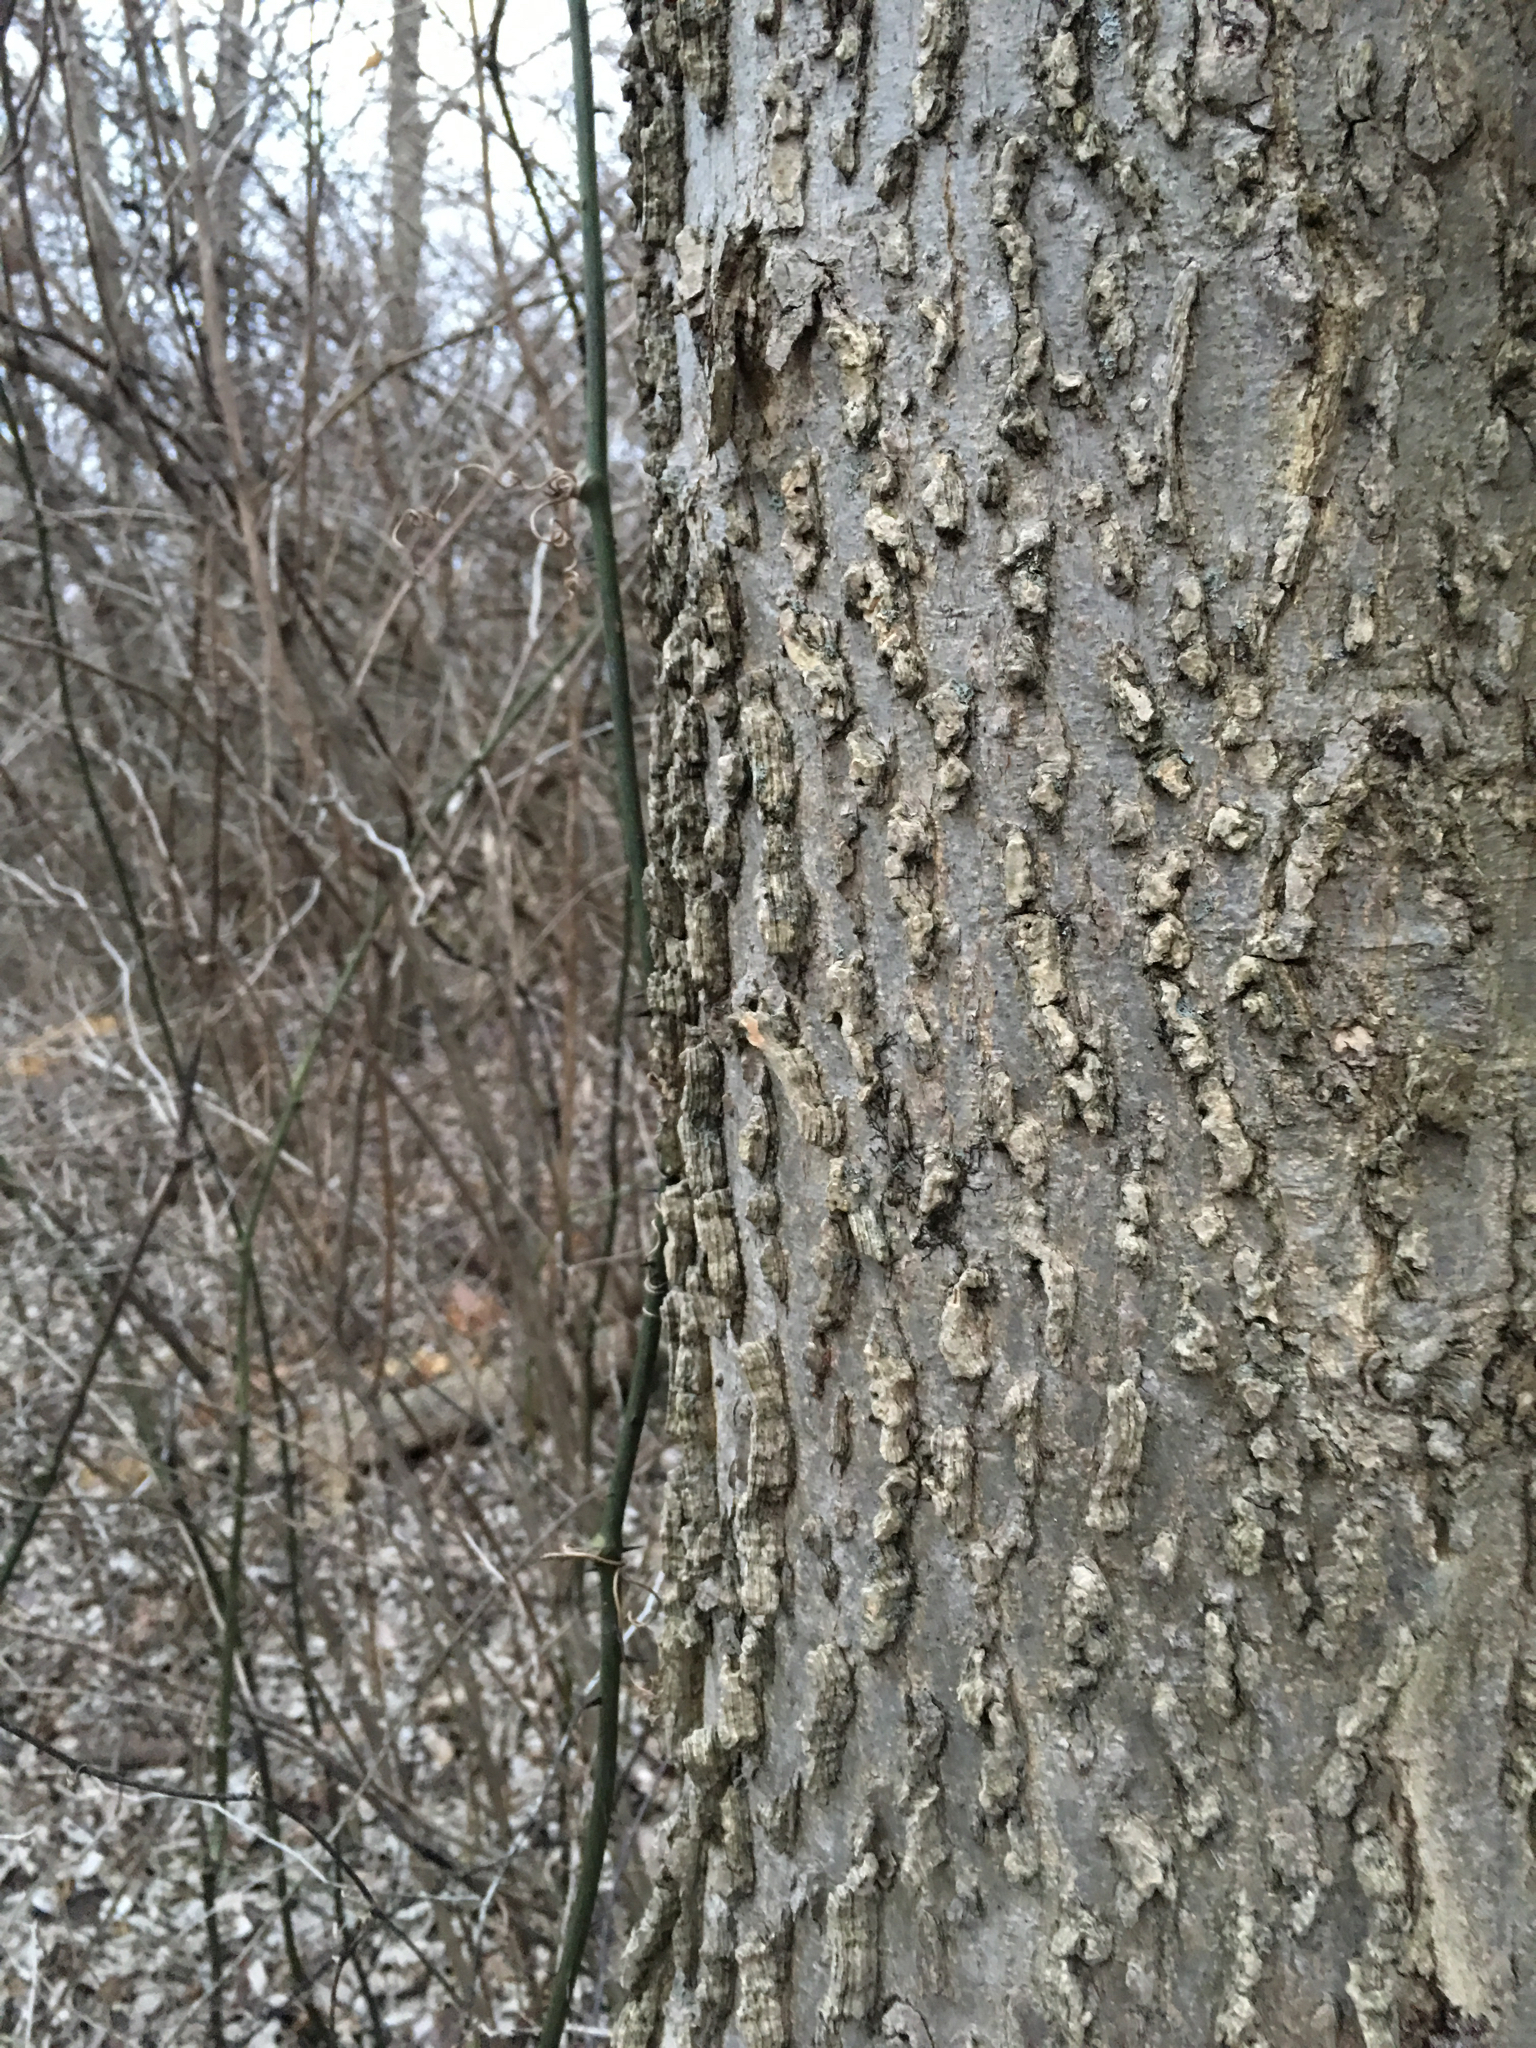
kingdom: Plantae
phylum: Tracheophyta
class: Magnoliopsida
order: Rosales
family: Cannabaceae
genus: Celtis
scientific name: Celtis occidentalis
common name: Common hackberry
